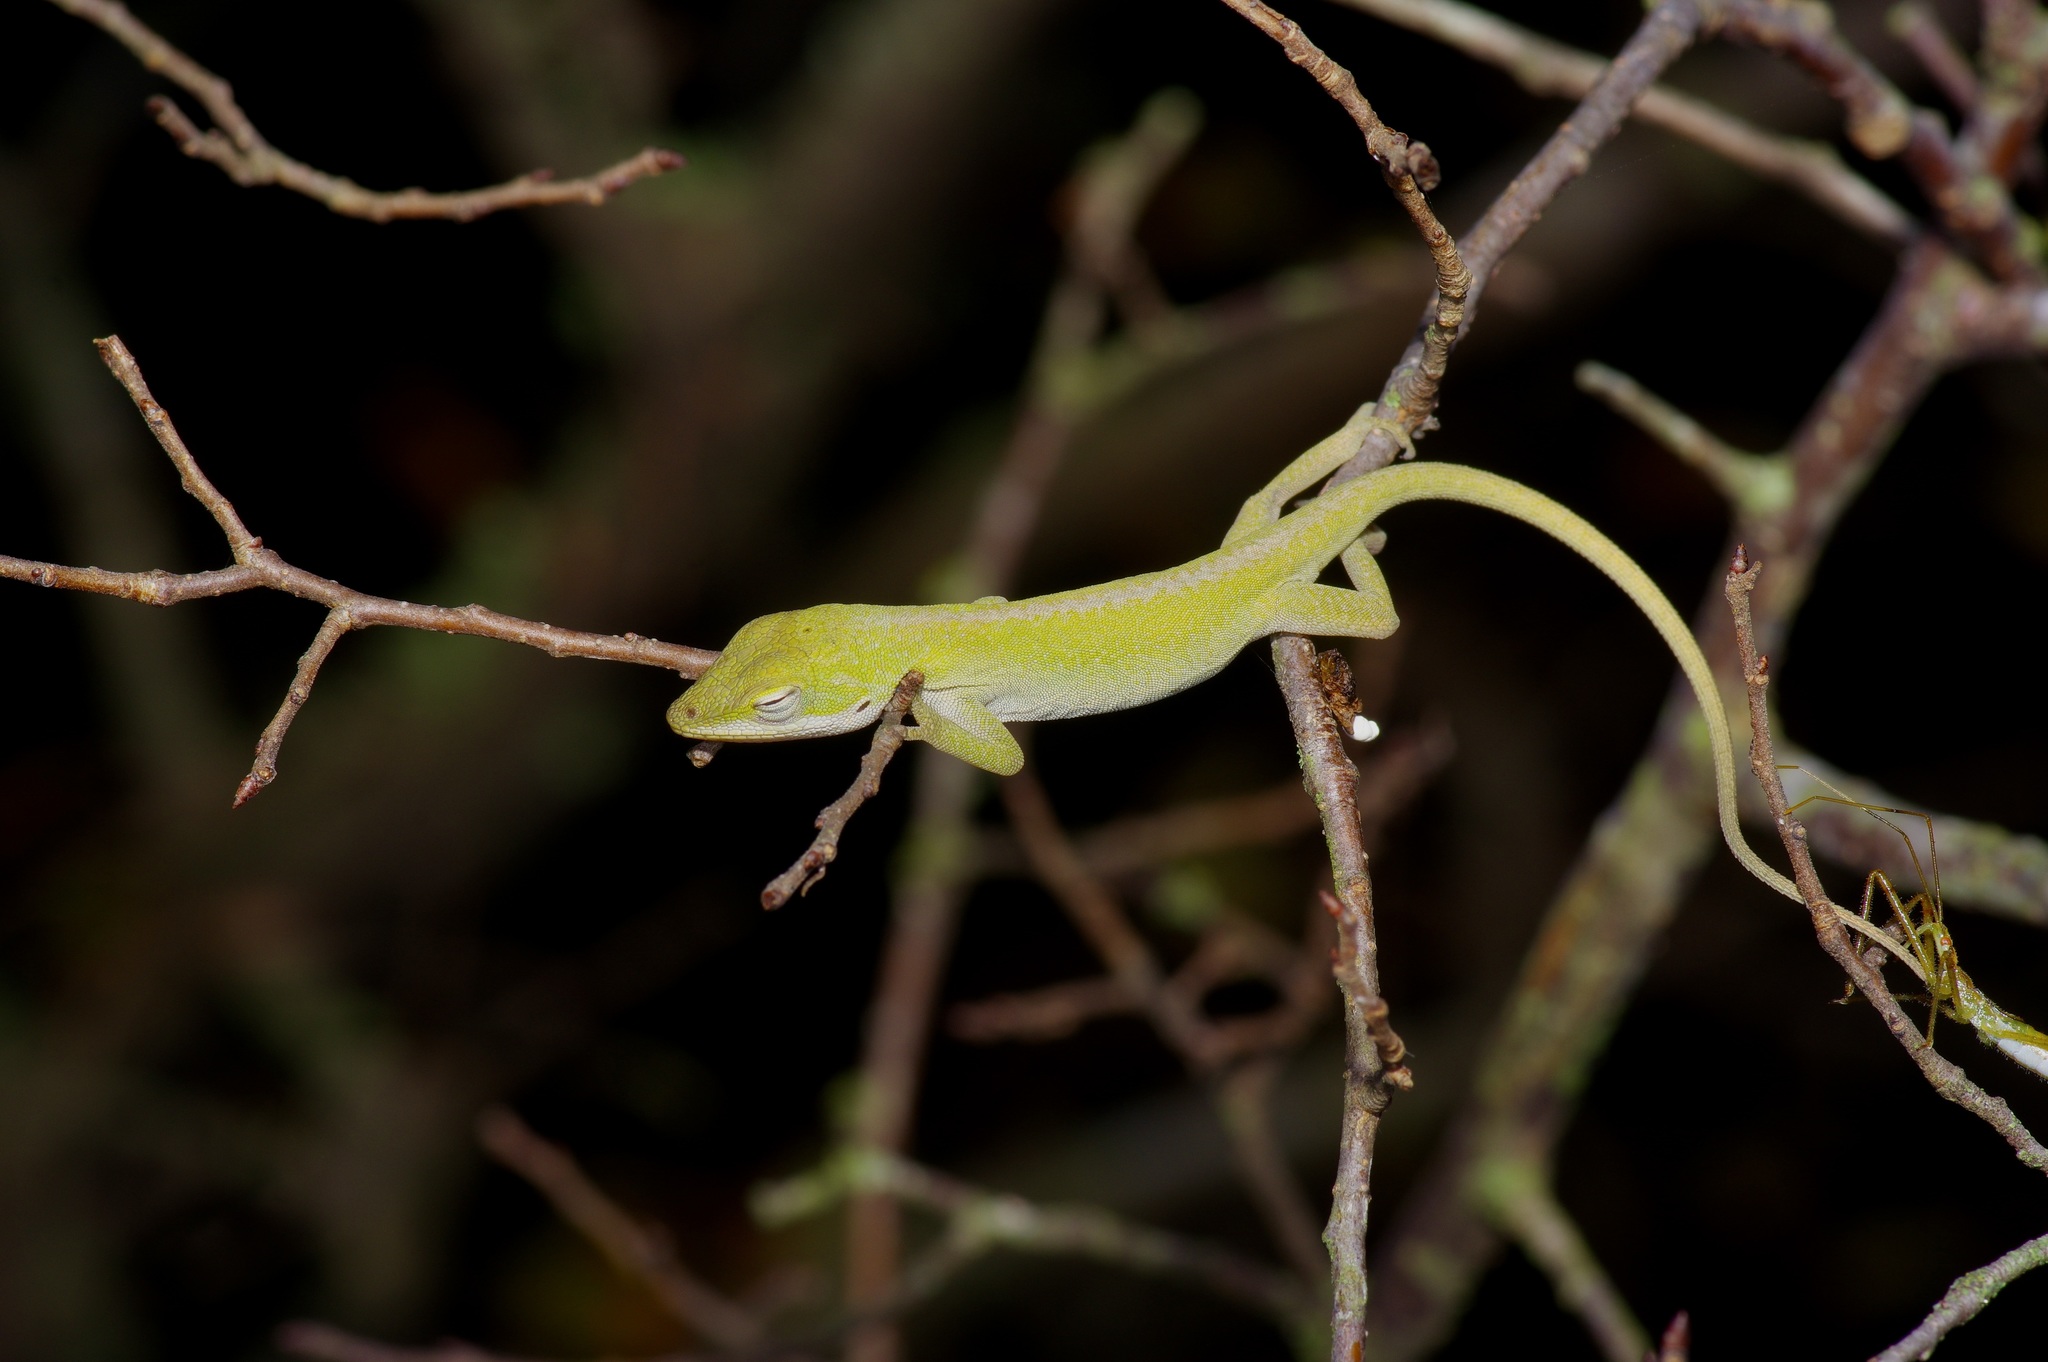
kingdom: Animalia
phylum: Chordata
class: Squamata
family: Dactyloidae
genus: Anolis
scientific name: Anolis carolinensis
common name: Green anole
